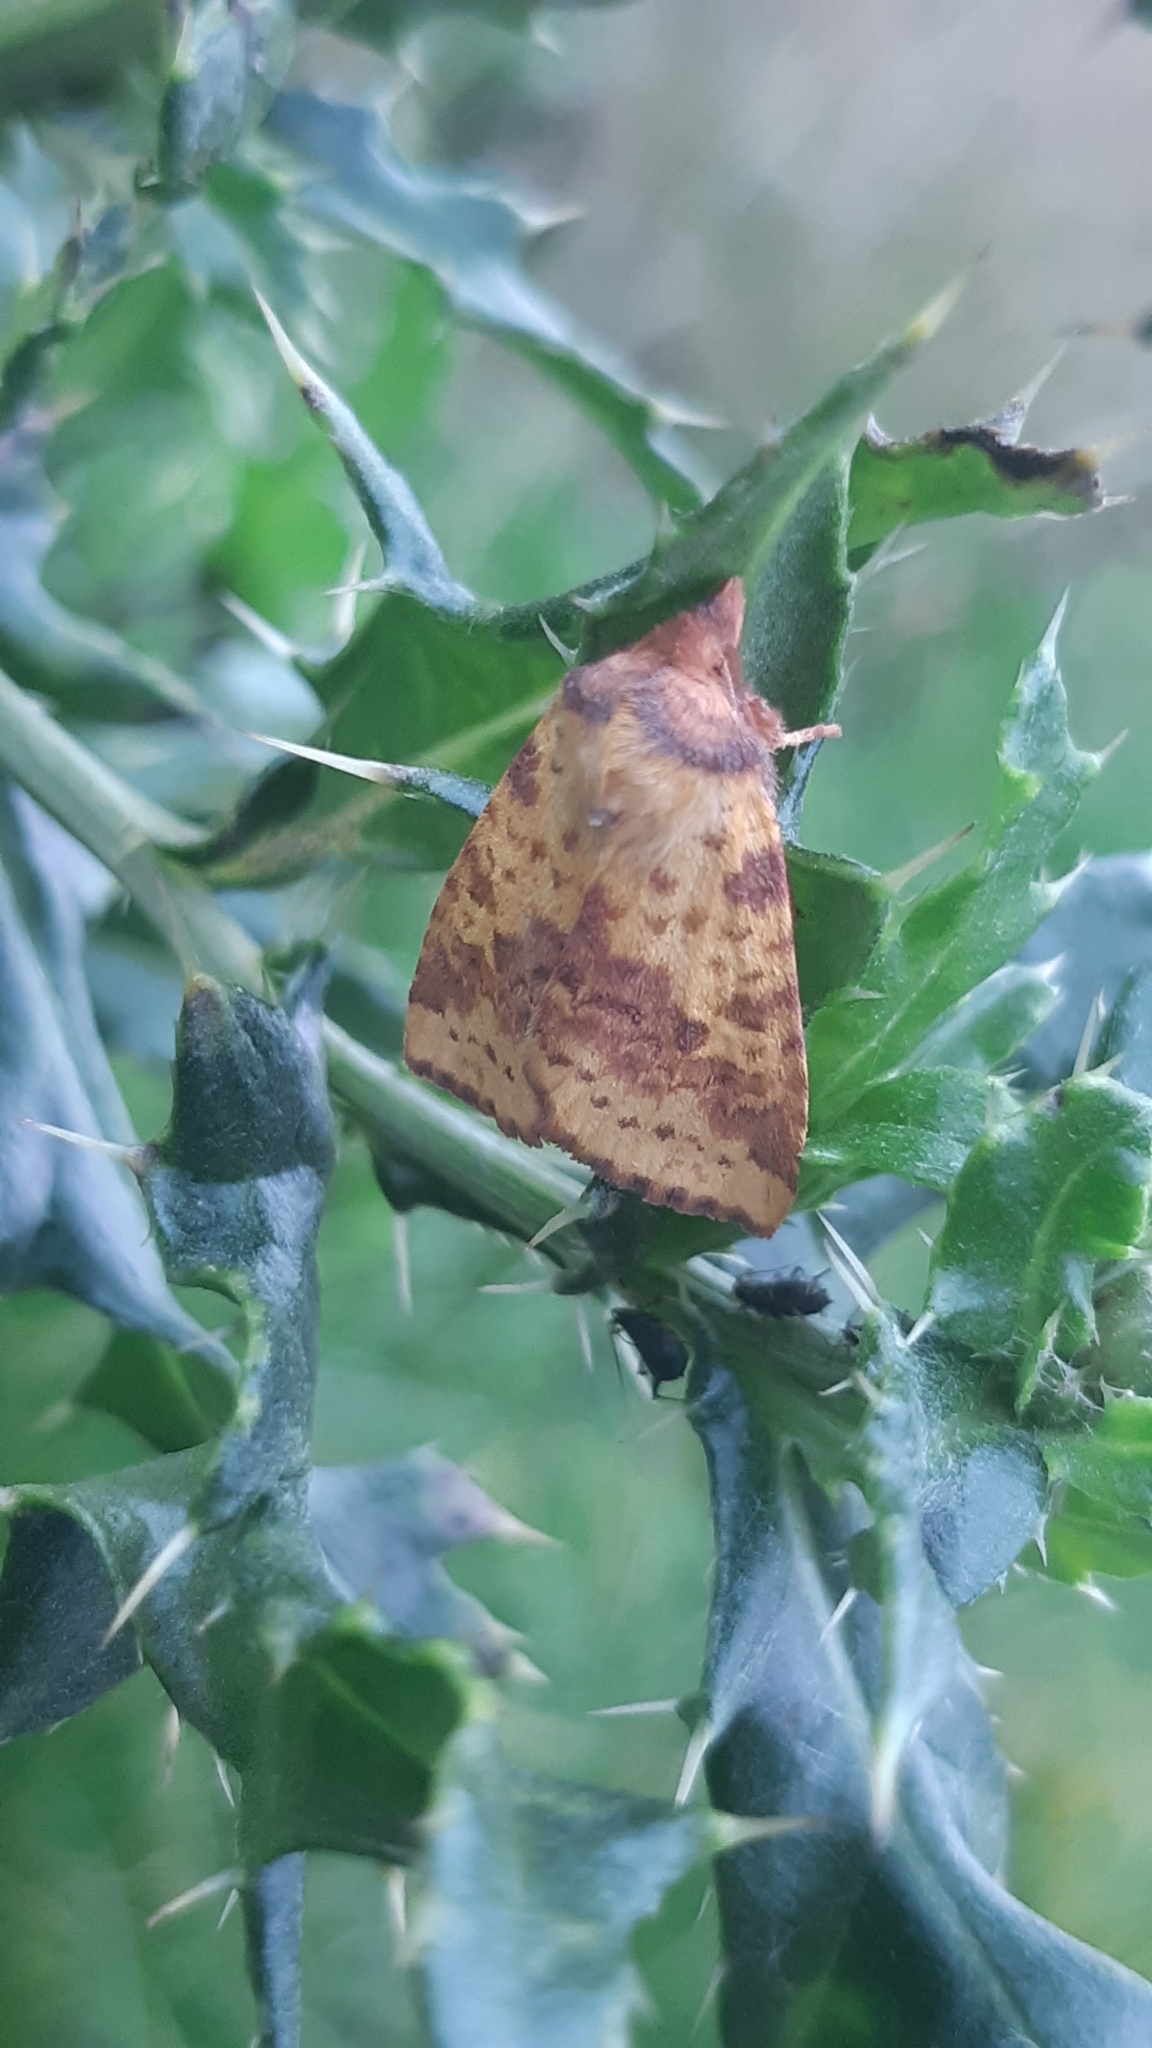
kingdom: Animalia
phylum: Arthropoda
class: Insecta
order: Lepidoptera
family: Noctuidae
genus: Xanthia
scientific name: Xanthia togata
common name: Pink-barred sallow
